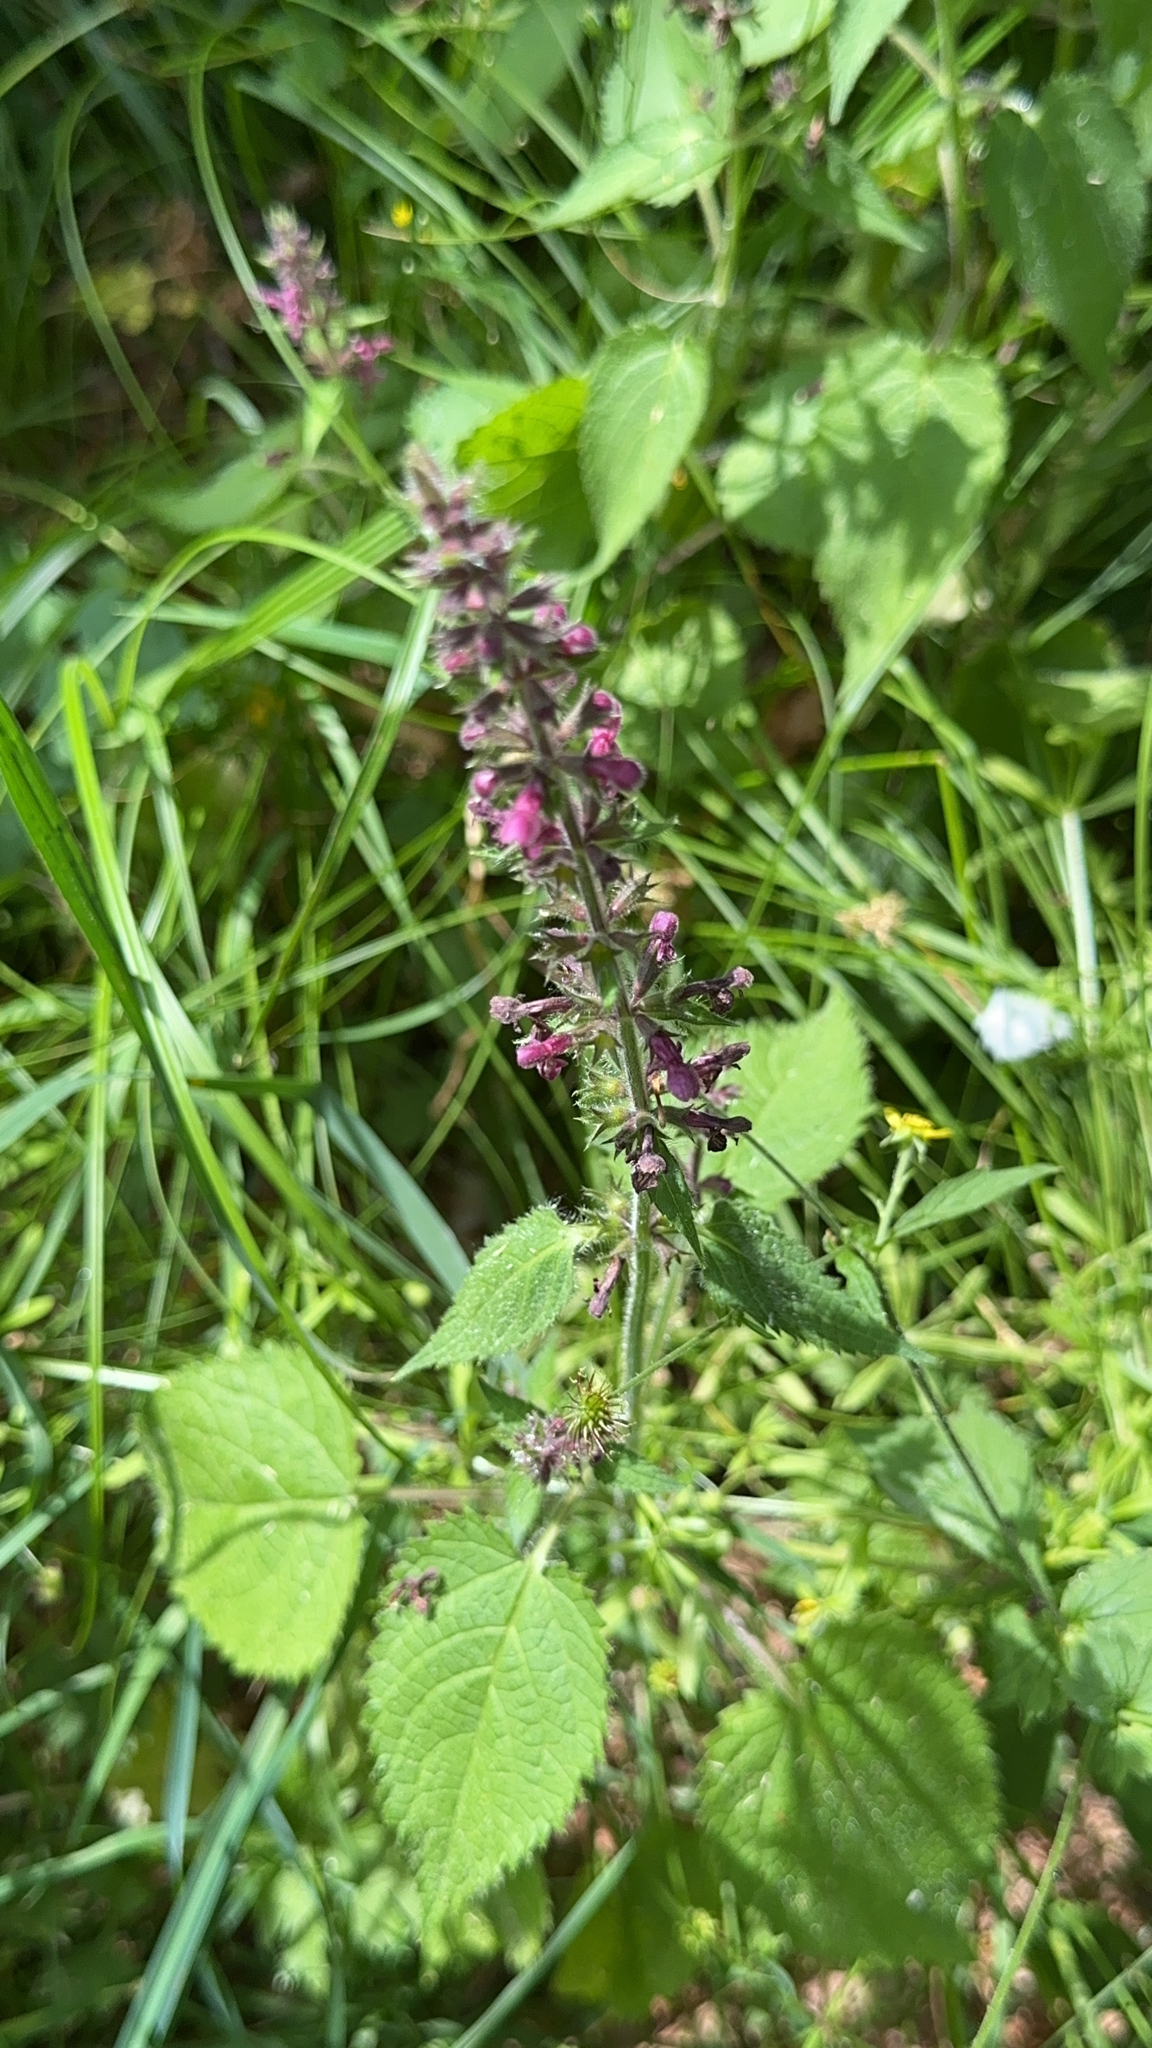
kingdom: Plantae
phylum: Tracheophyta
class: Magnoliopsida
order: Lamiales
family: Lamiaceae
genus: Stachys
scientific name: Stachys sylvatica
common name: Hedge woundwort
